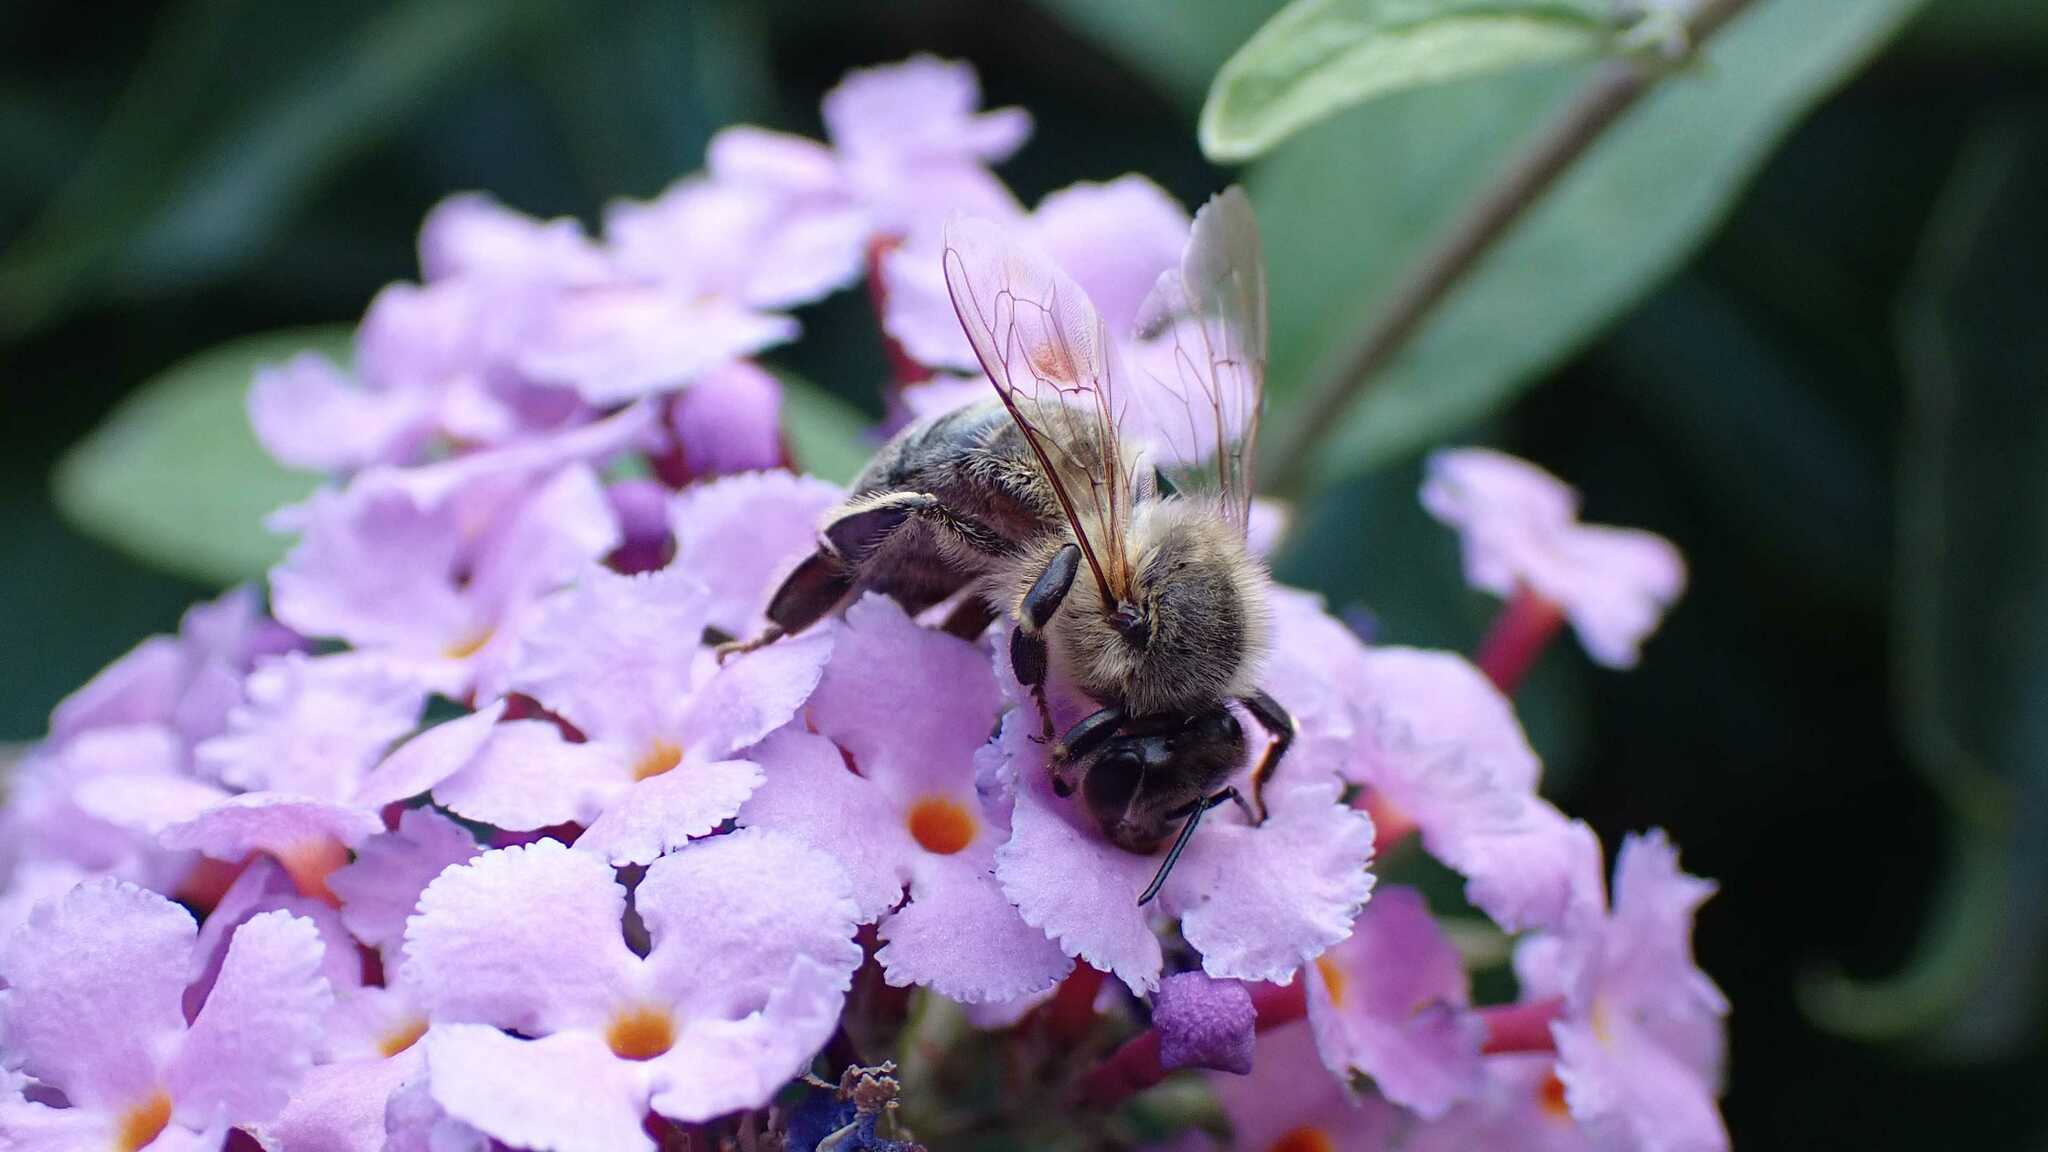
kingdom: Animalia
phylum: Arthropoda
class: Insecta
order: Hymenoptera
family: Apidae
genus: Apis
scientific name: Apis mellifera
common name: Honey bee
